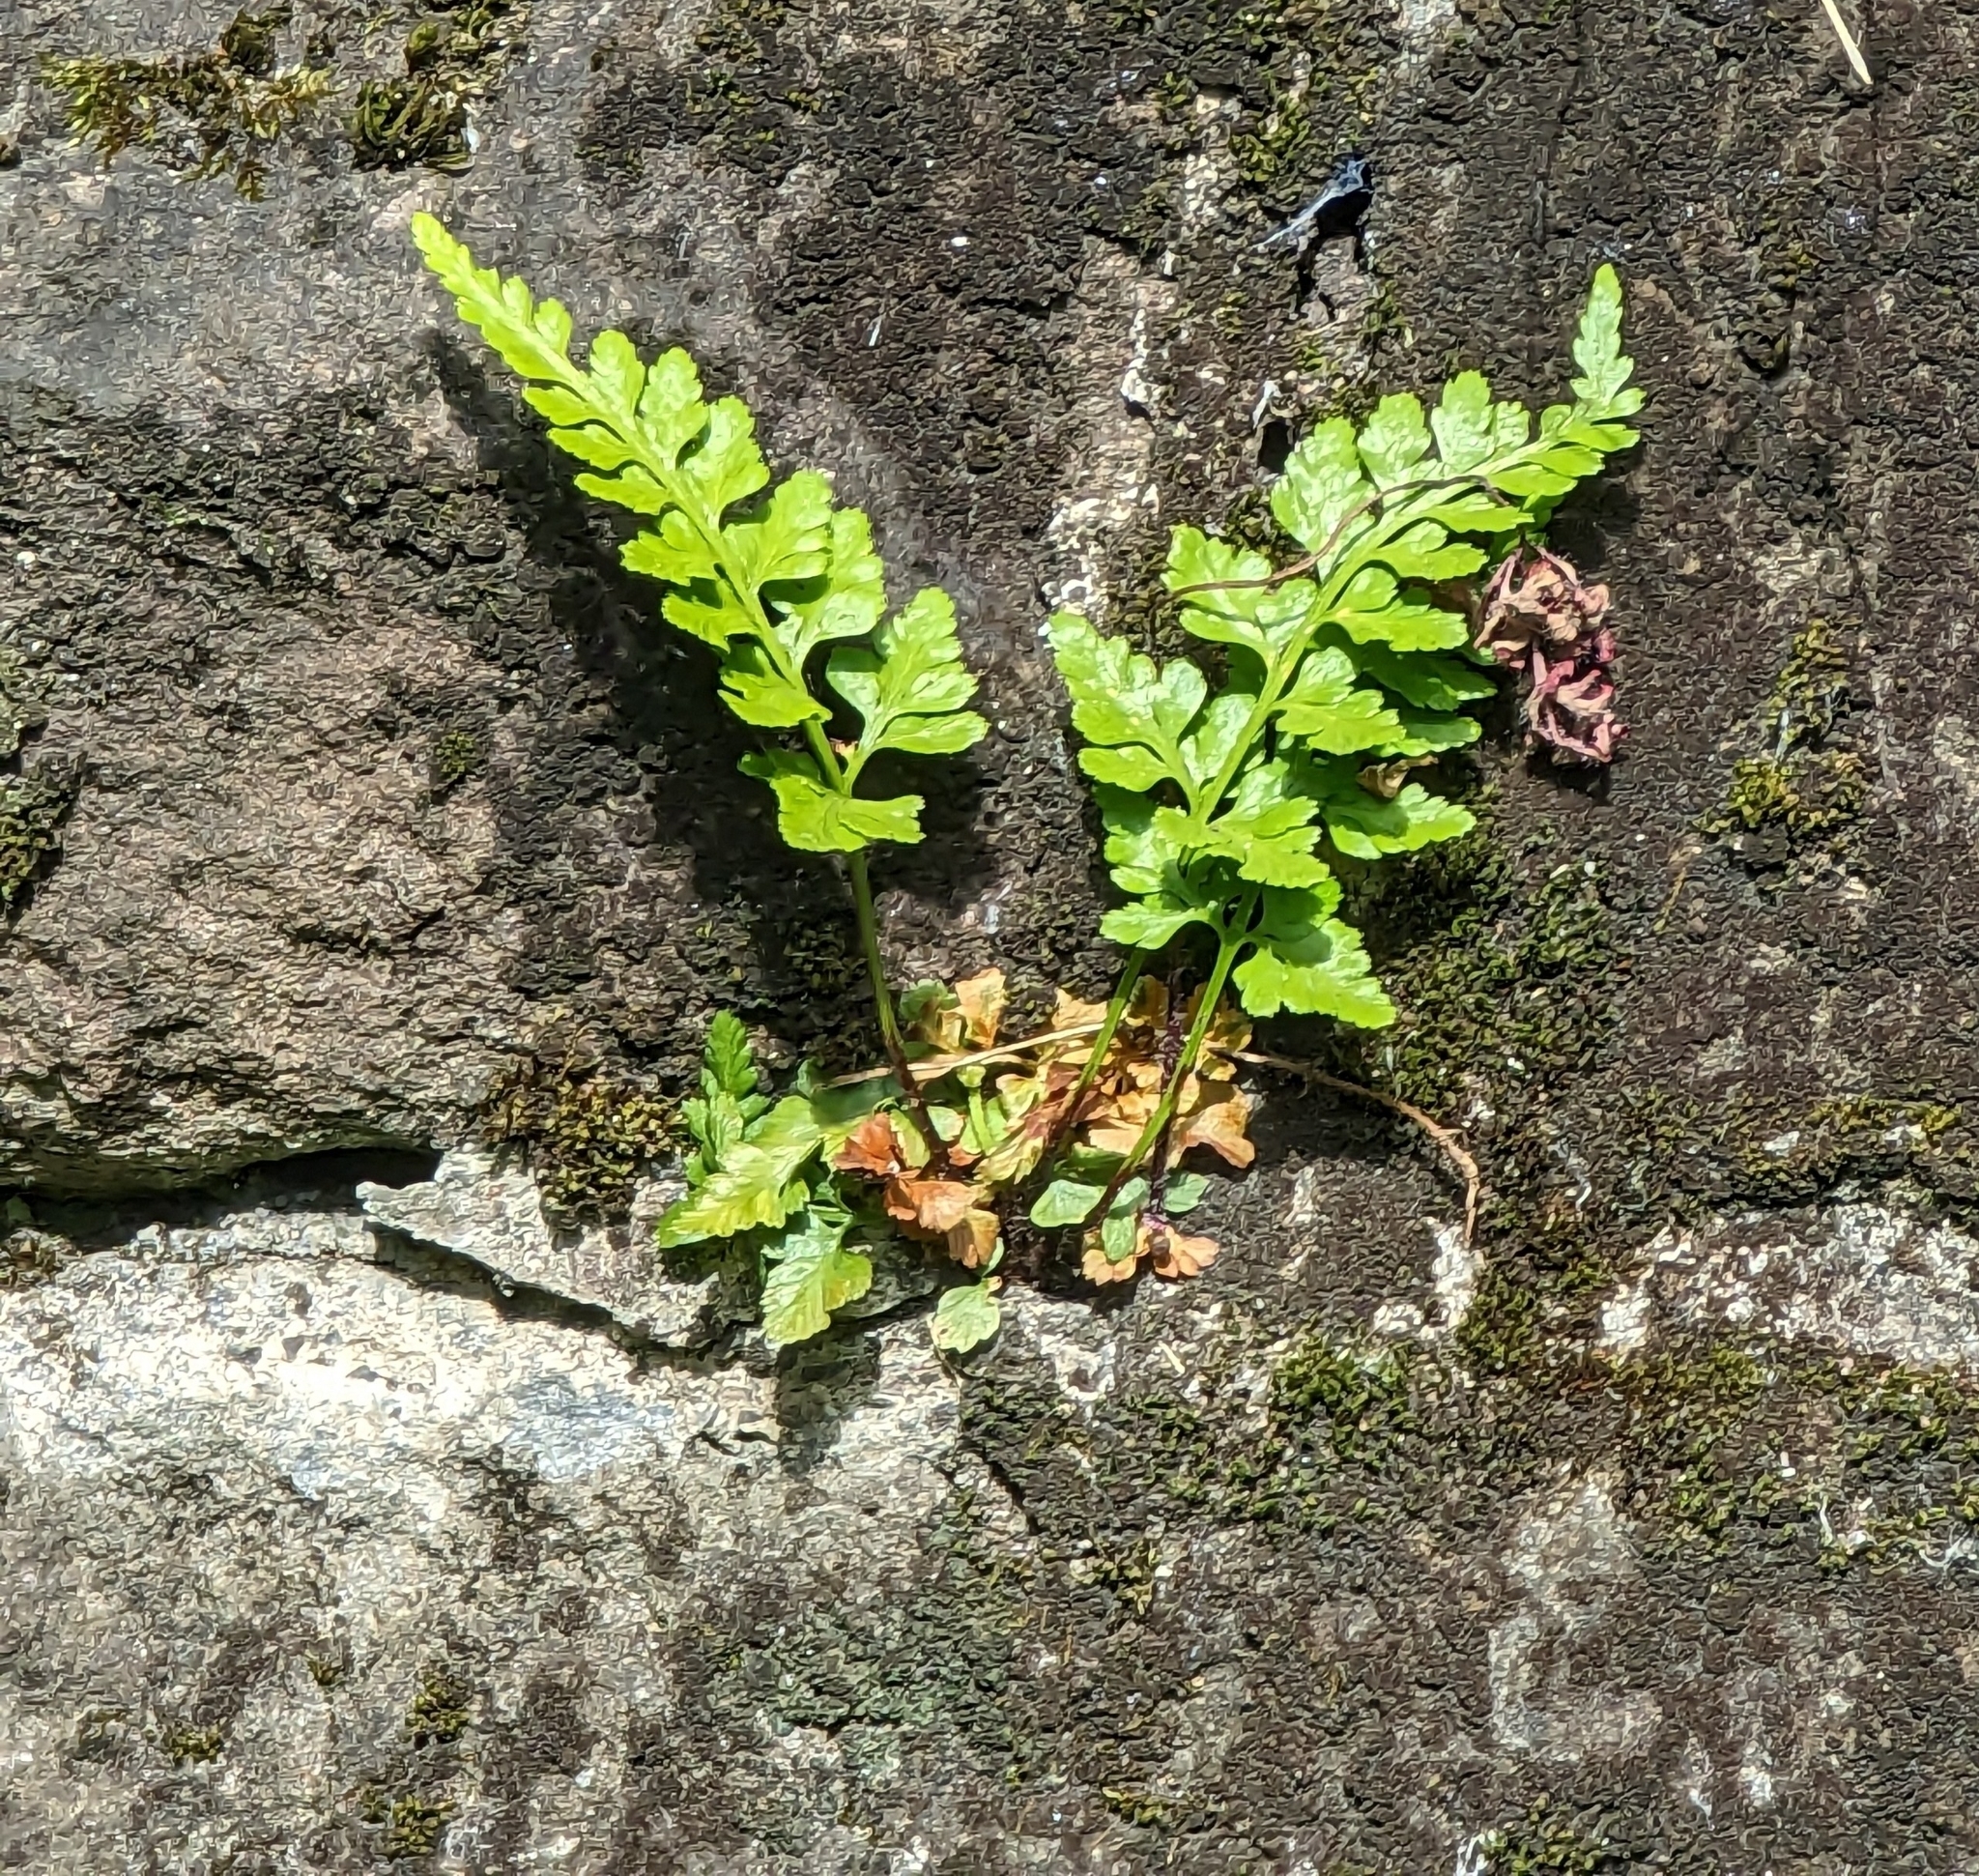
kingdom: Plantae
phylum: Tracheophyta
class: Polypodiopsida
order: Polypodiales
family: Aspleniaceae
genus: Asplenium
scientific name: Asplenium adiantum-nigrum
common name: Black spleenwort
